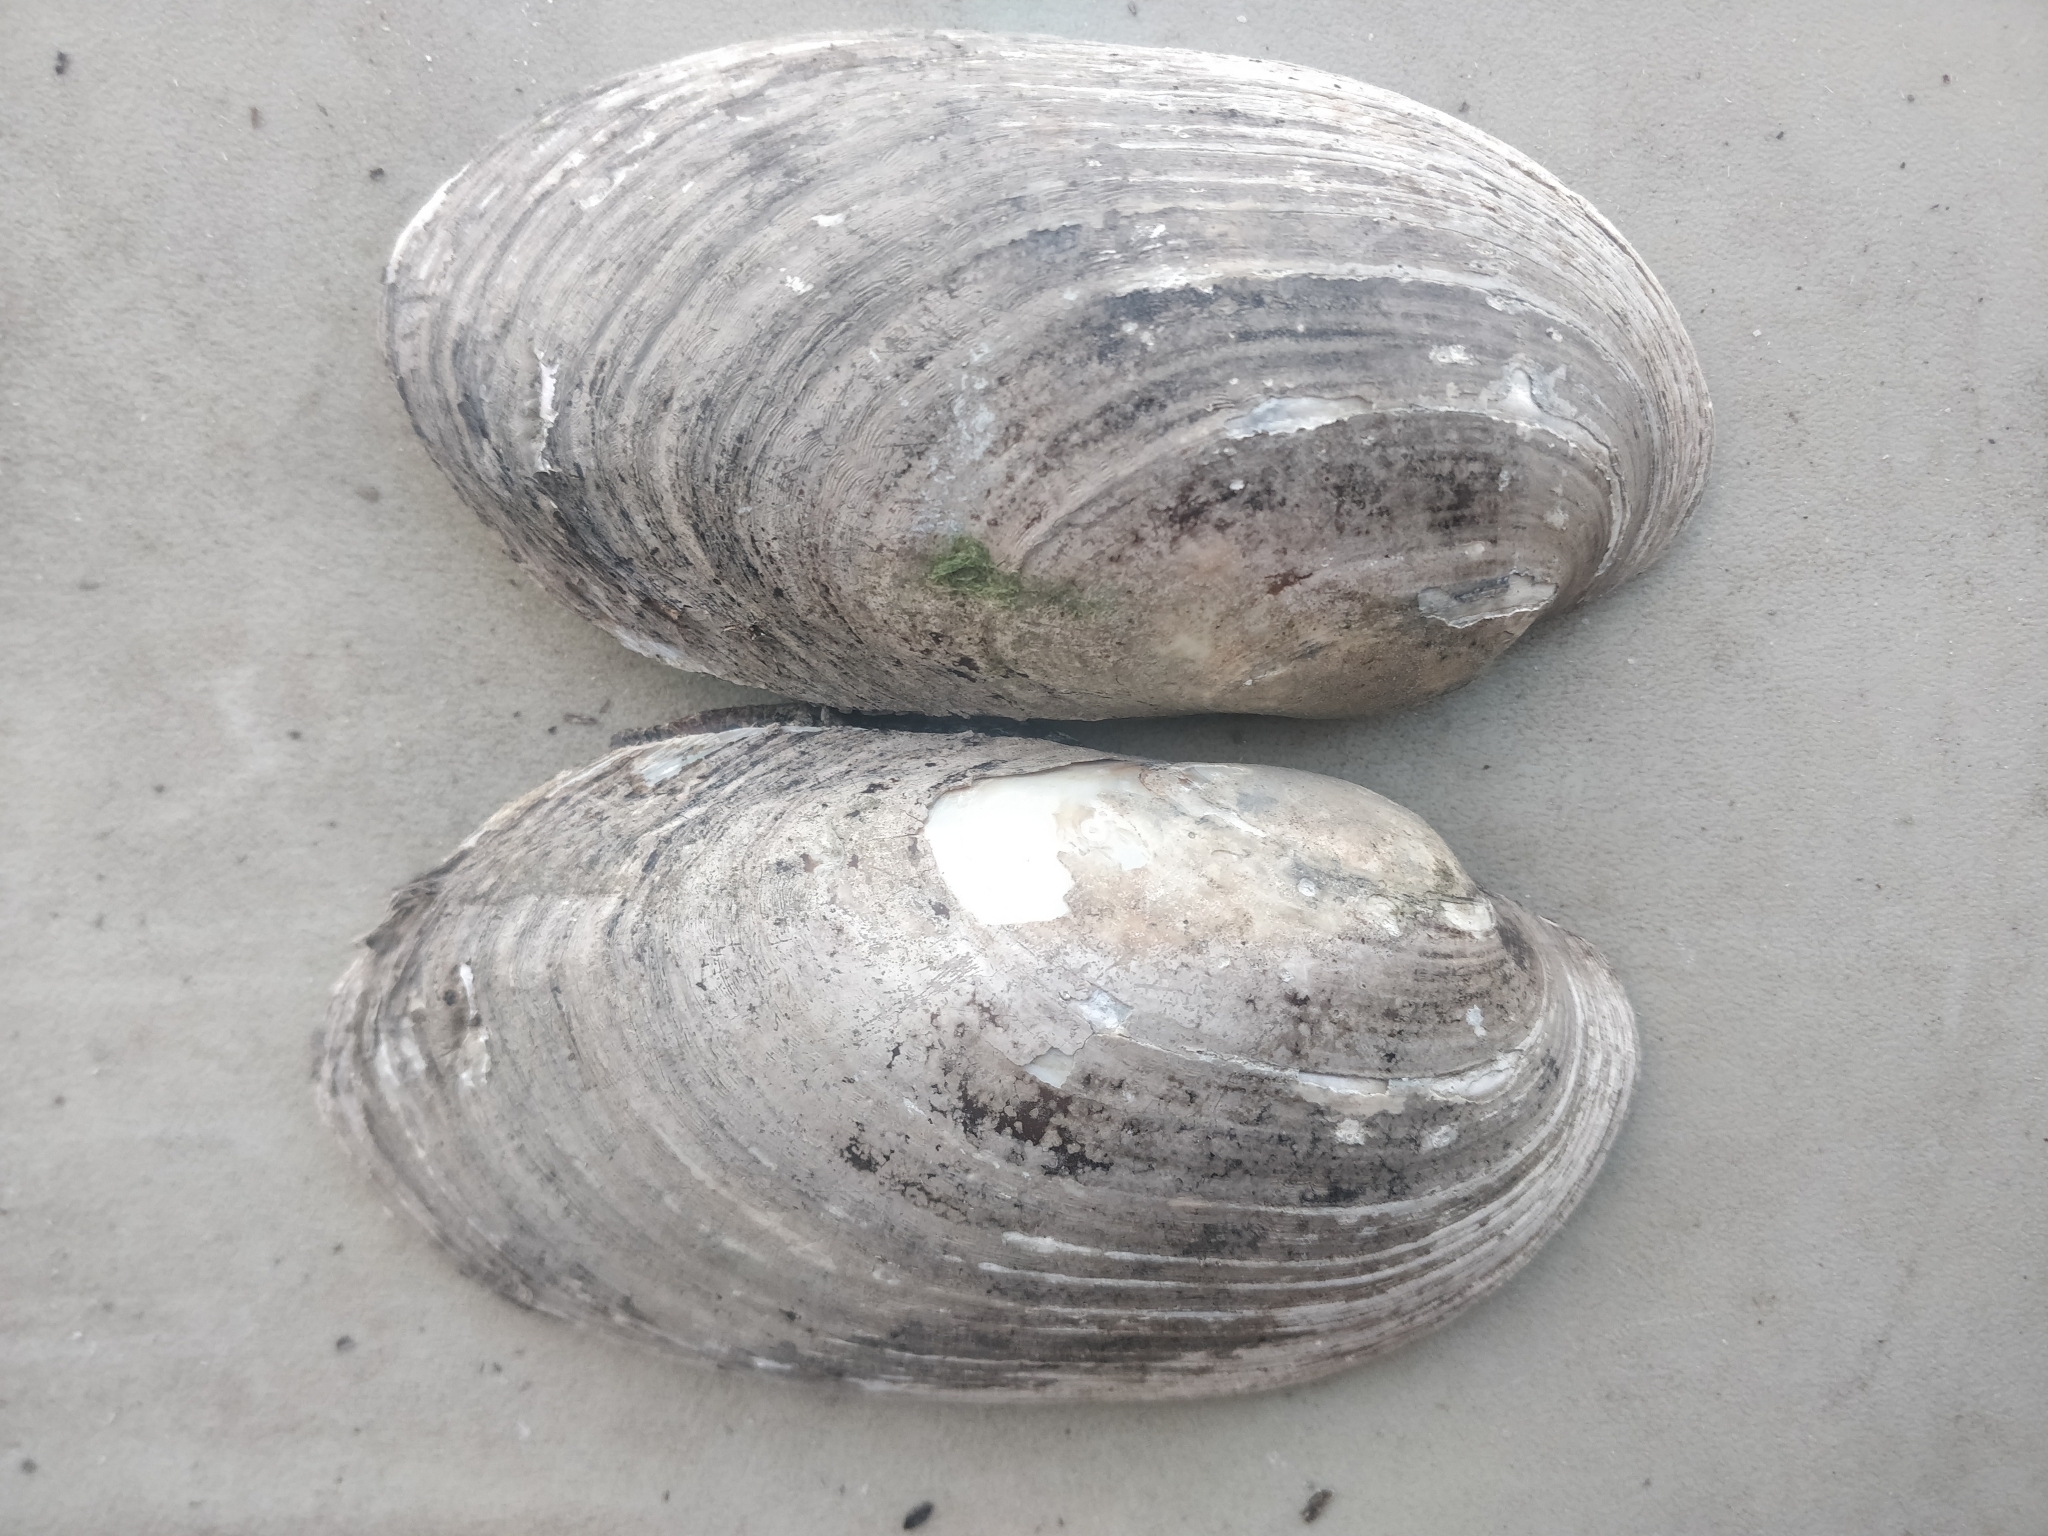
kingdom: Animalia
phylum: Mollusca
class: Bivalvia
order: Unionida
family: Unionidae
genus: Lampsilis
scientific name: Lampsilis siliquoidea
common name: Fatmucket
